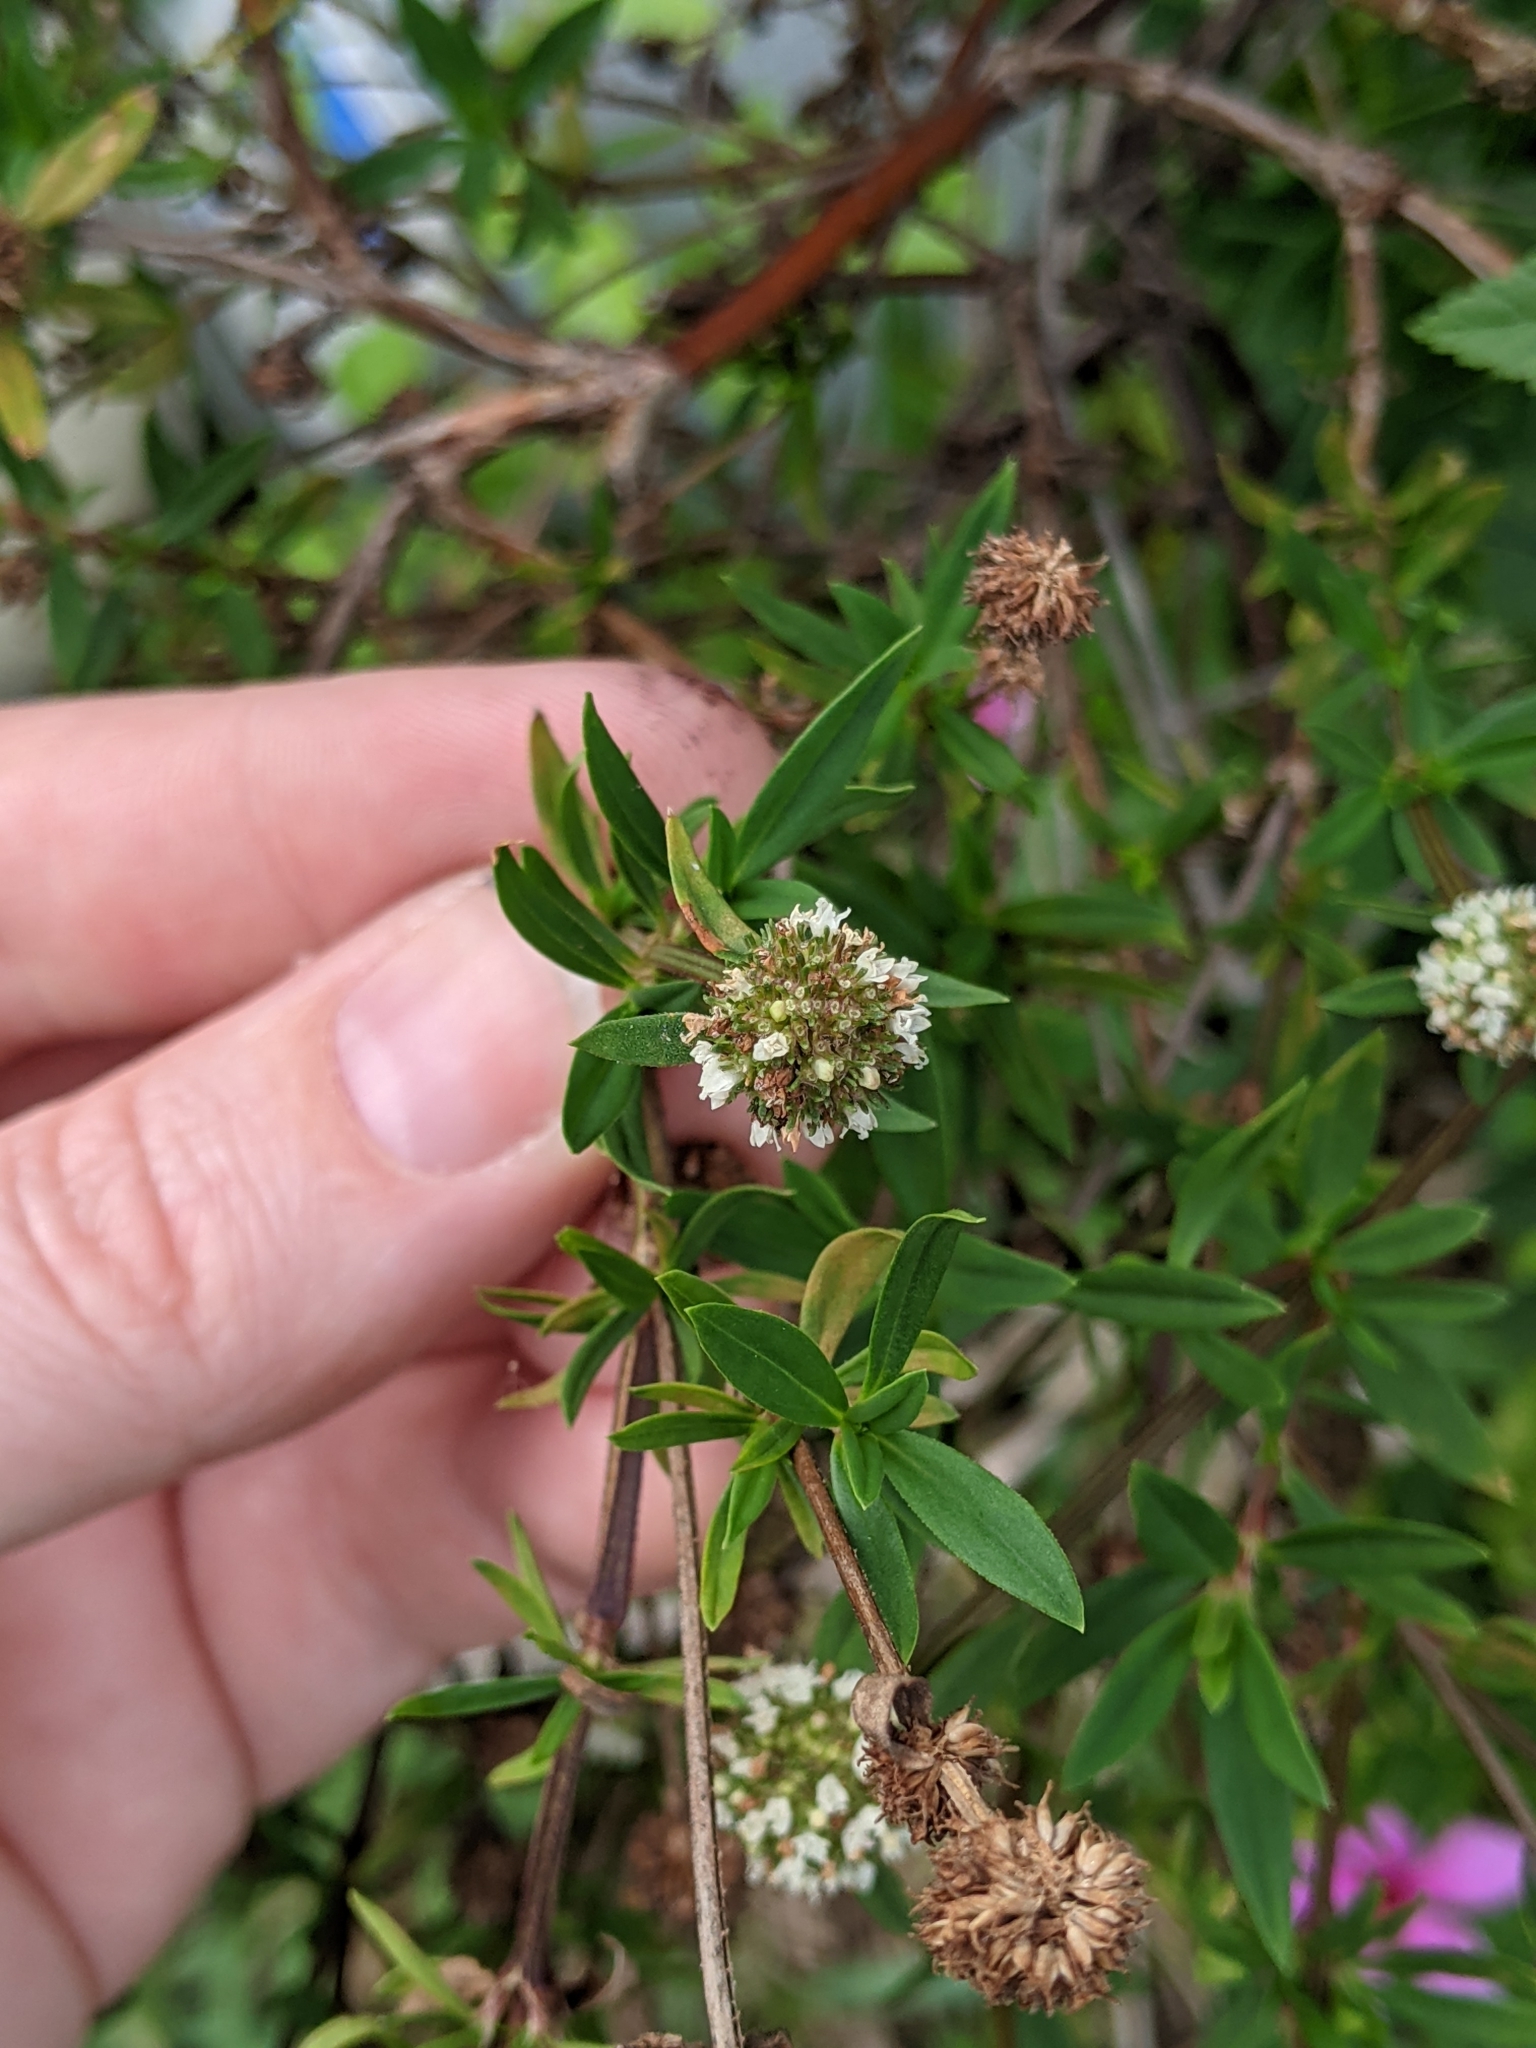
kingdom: Plantae
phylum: Tracheophyta
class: Magnoliopsida
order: Gentianales
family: Rubiaceae
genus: Spermacoce
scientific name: Spermacoce verticillata
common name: Shrubby false buttonweed
